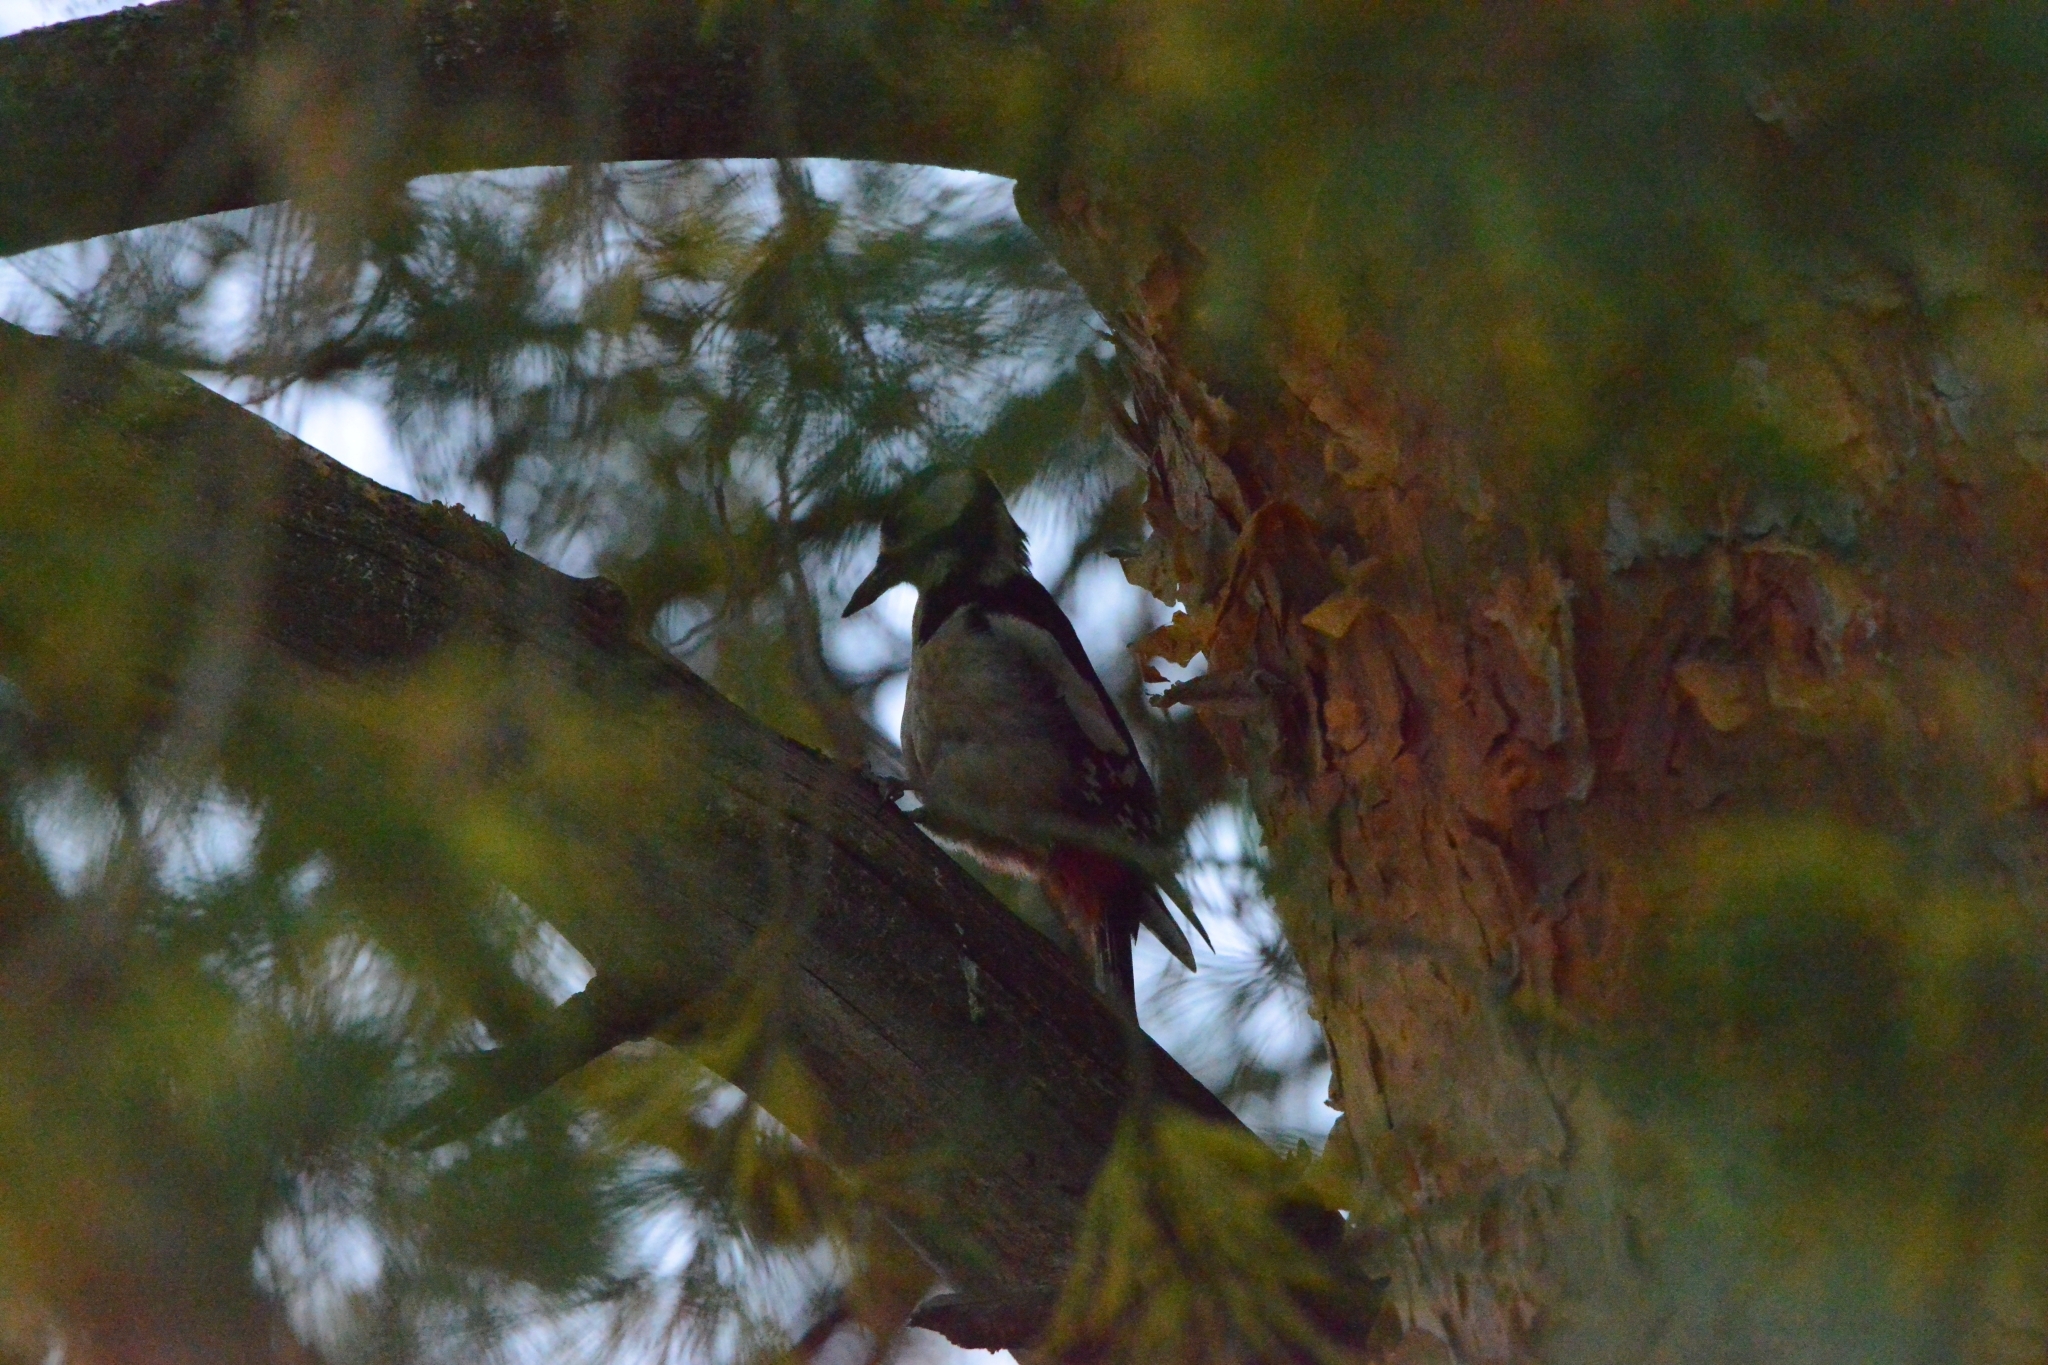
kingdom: Animalia
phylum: Chordata
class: Aves
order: Piciformes
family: Picidae
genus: Dendrocopos
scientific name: Dendrocopos major
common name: Great spotted woodpecker
